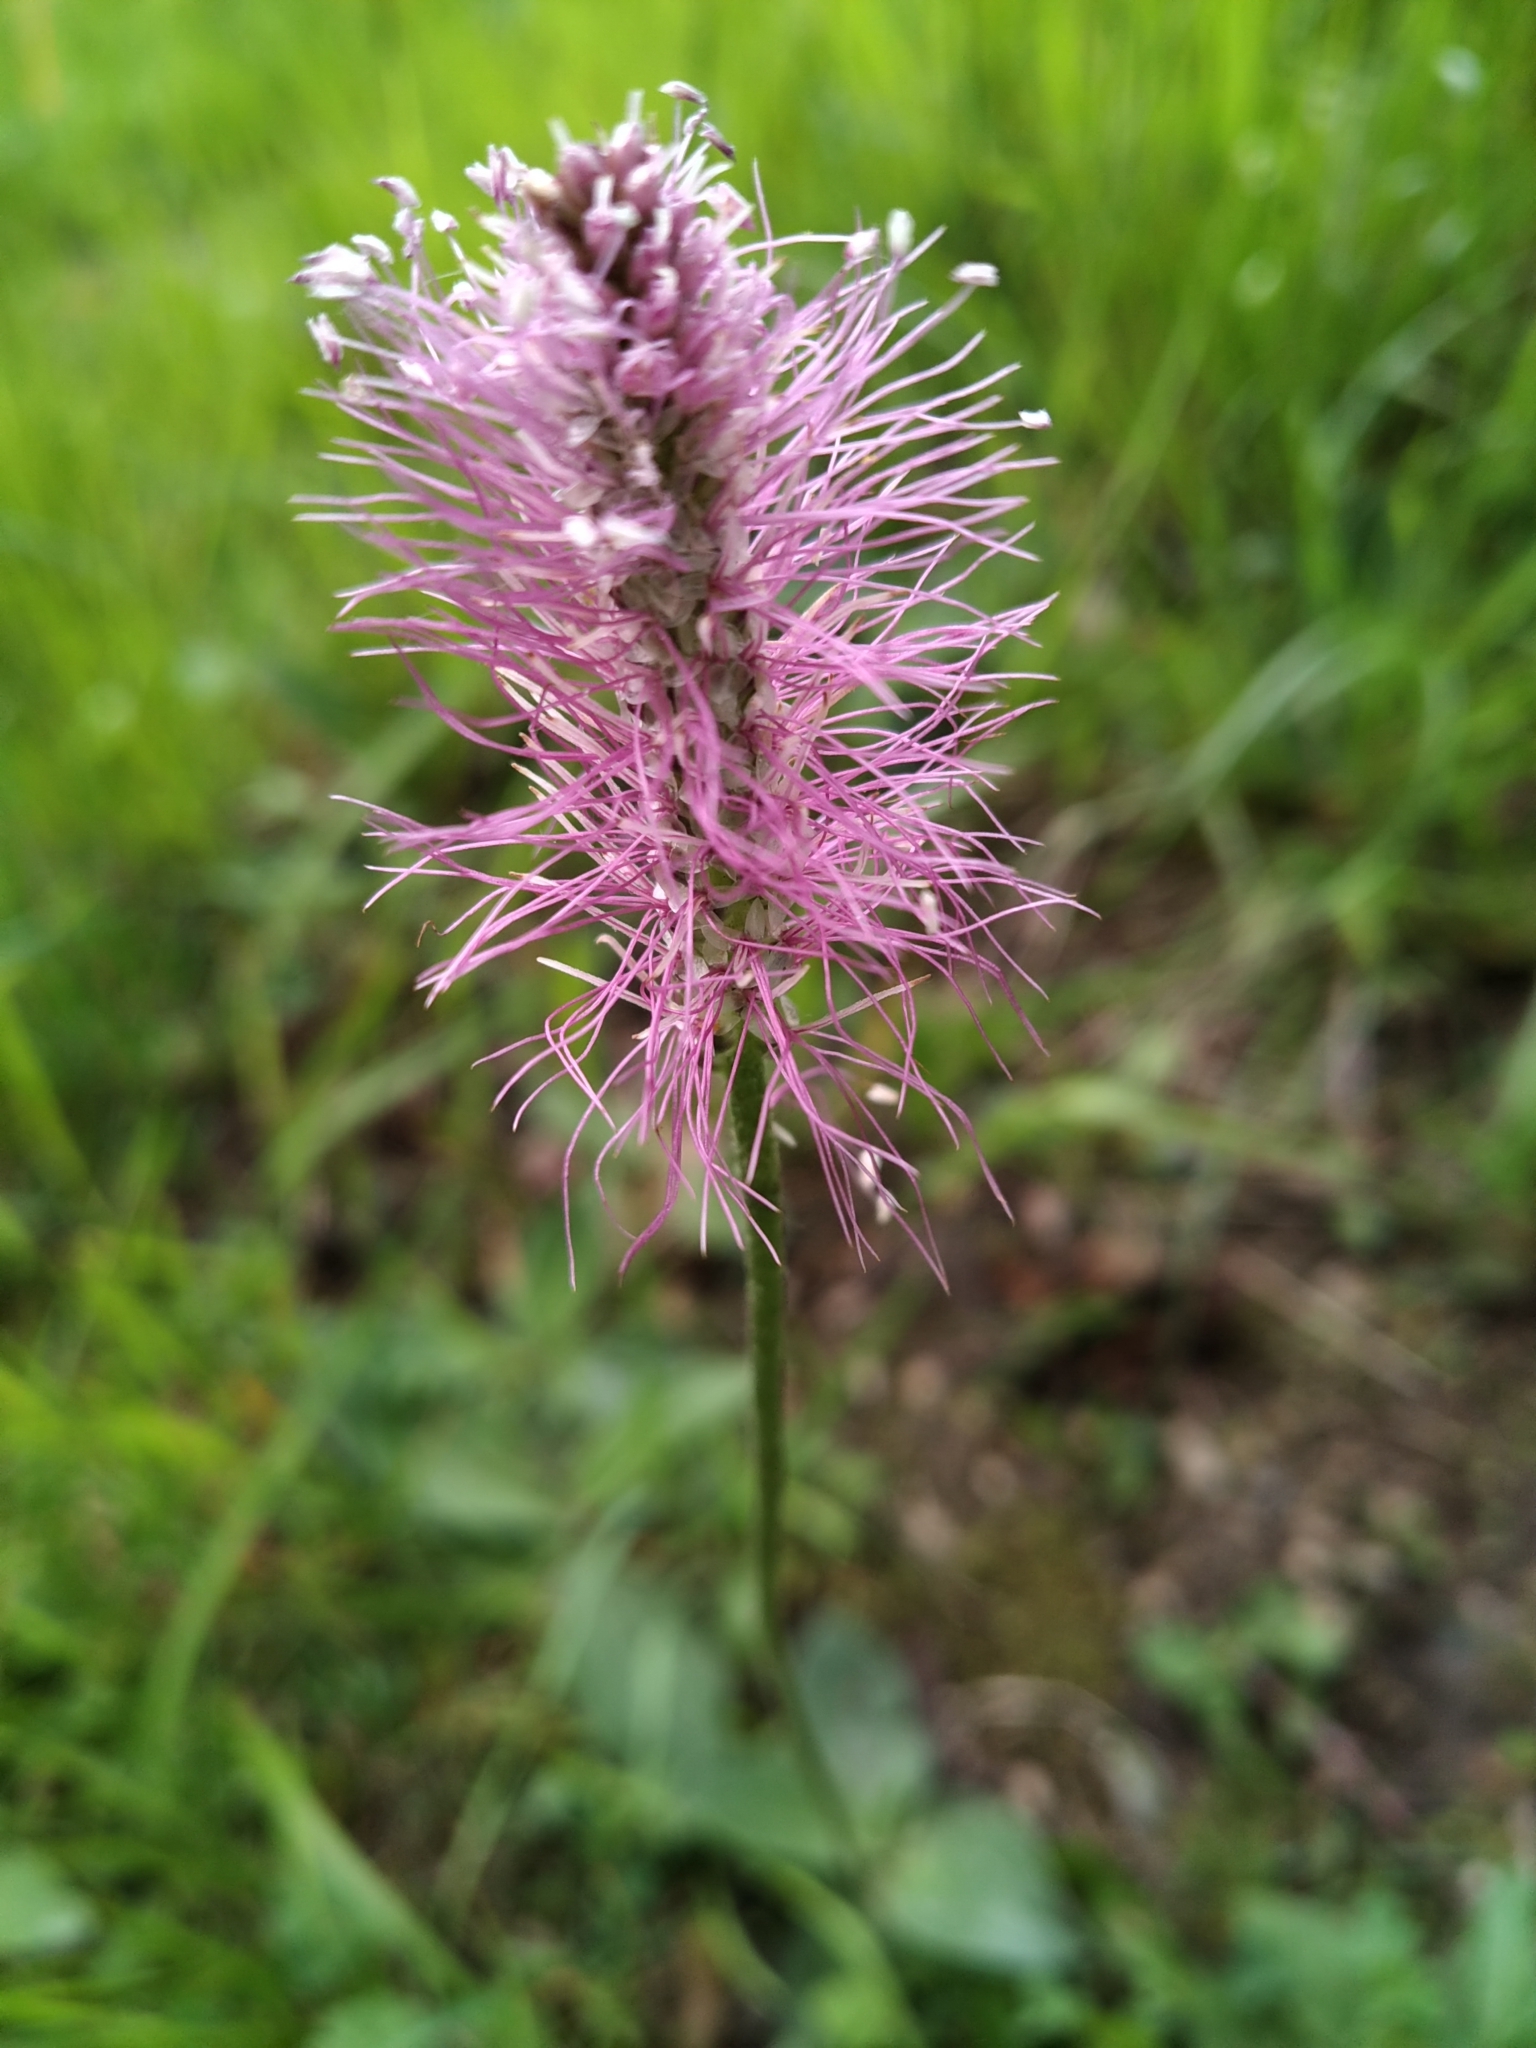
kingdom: Plantae
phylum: Tracheophyta
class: Magnoliopsida
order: Lamiales
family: Plantaginaceae
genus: Plantago
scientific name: Plantago media
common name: Hoary plantain
